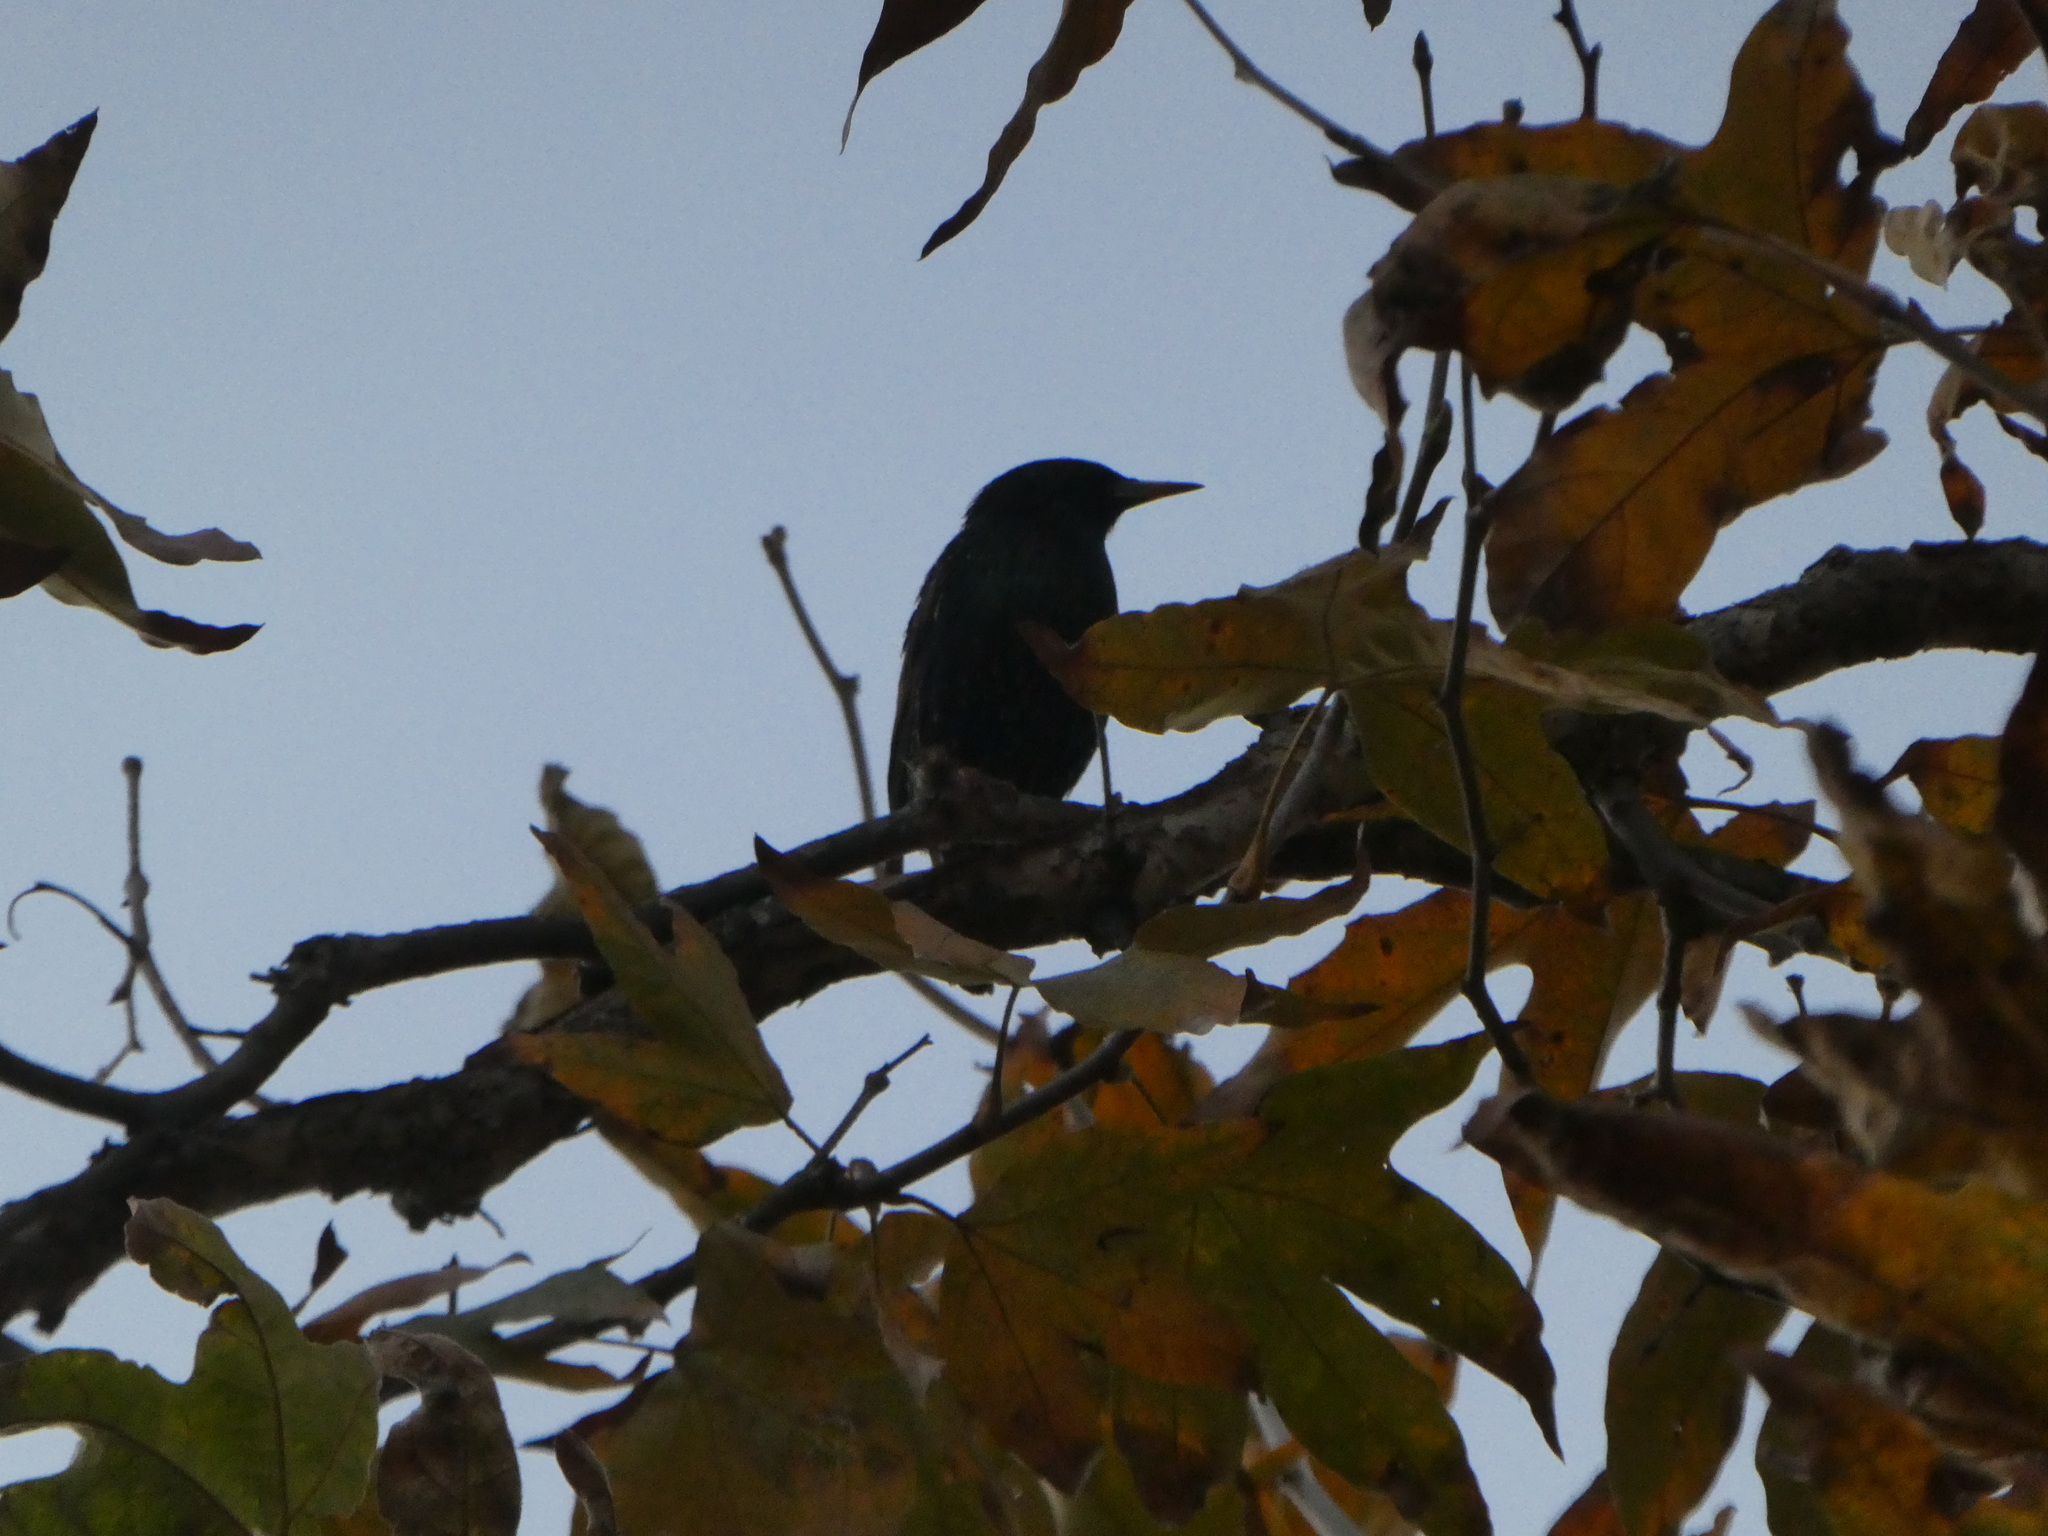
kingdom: Animalia
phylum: Chordata
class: Aves
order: Passeriformes
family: Sturnidae
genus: Sturnus
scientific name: Sturnus vulgaris
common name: Common starling
